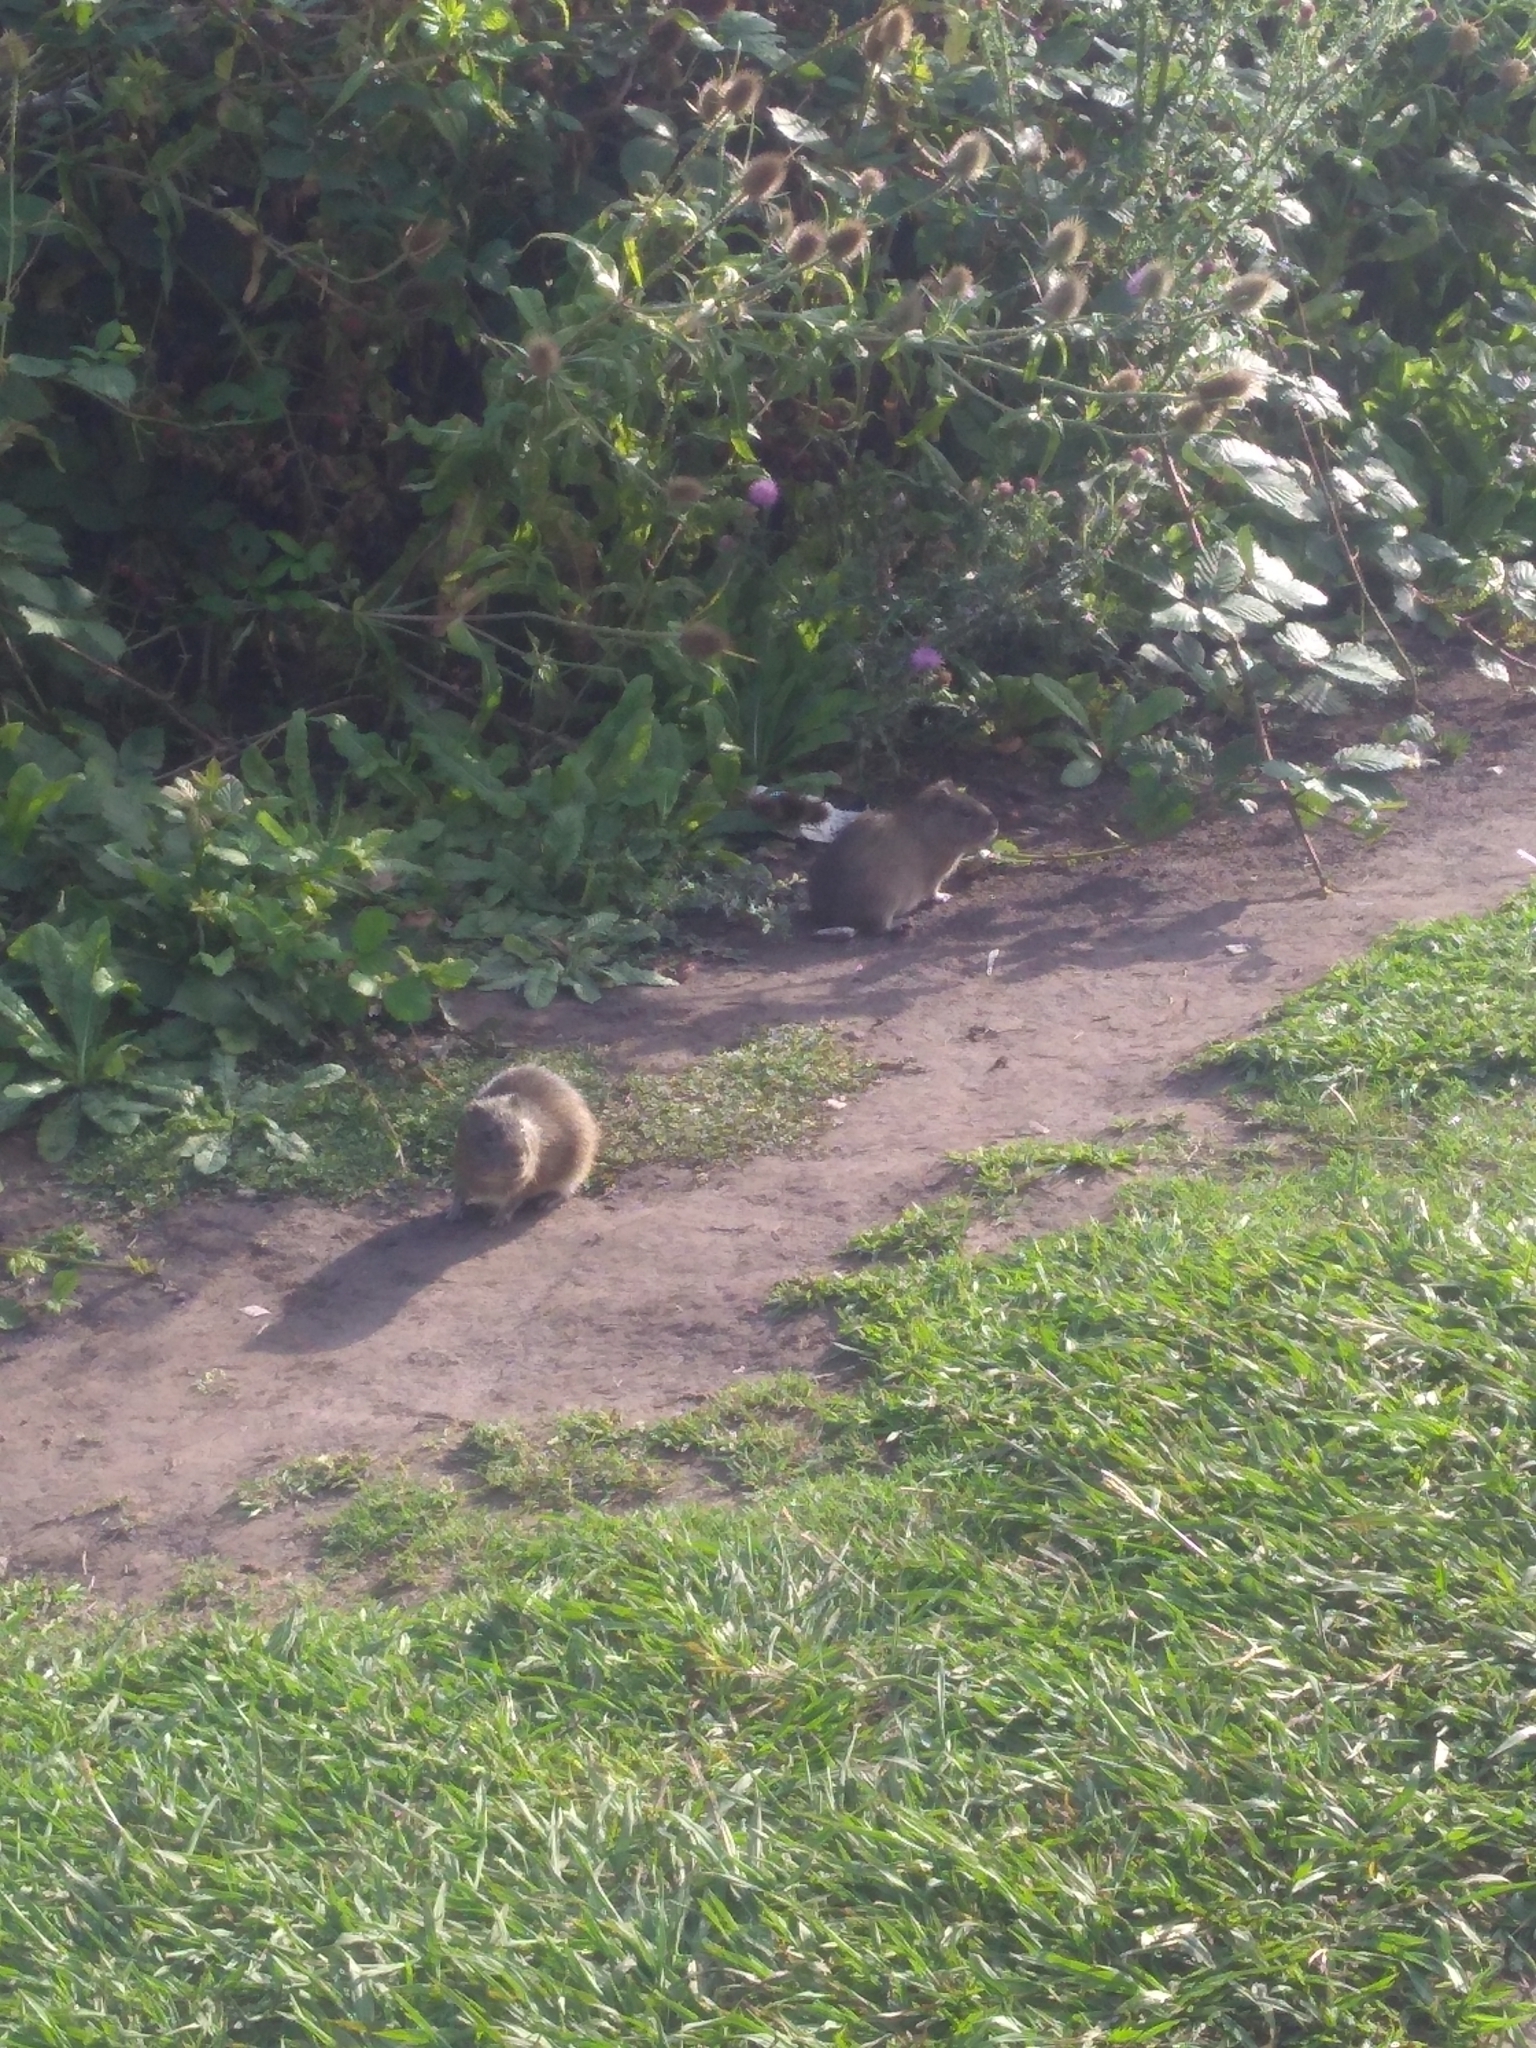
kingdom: Animalia
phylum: Chordata
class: Mammalia
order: Rodentia
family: Caviidae
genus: Cavia
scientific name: Cavia aperea
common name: Brazilian guinea pig
